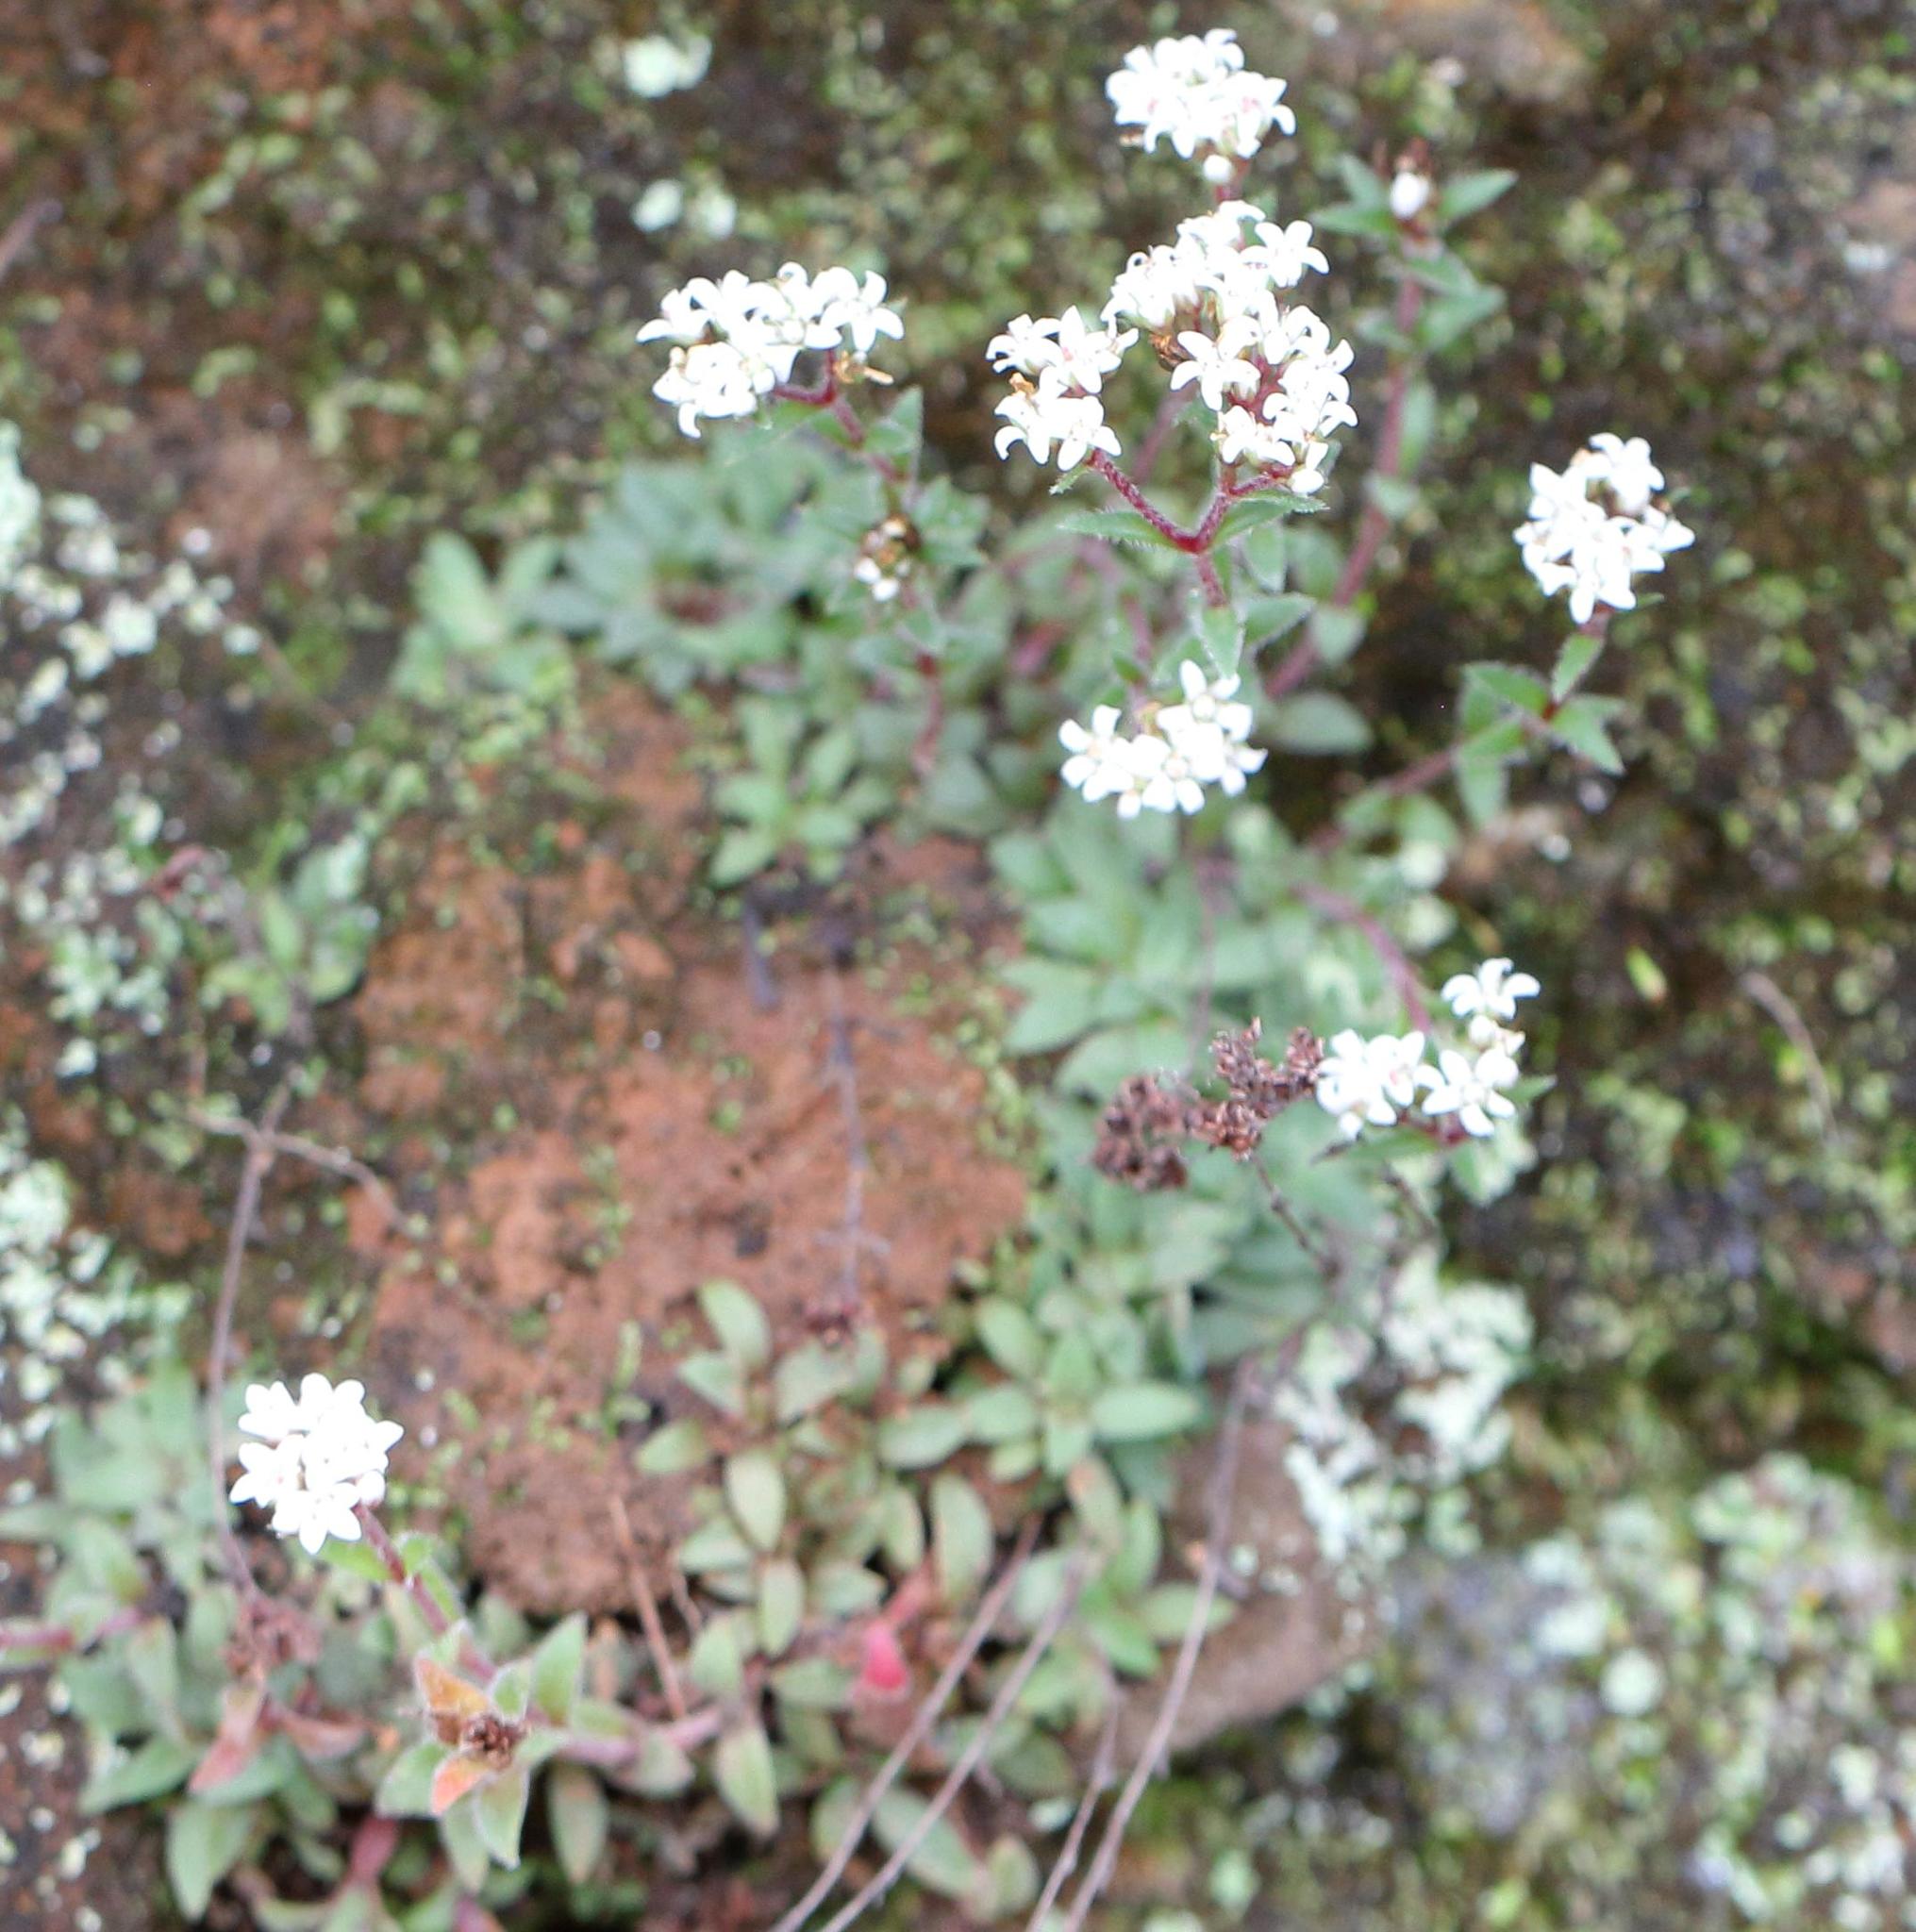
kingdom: Plantae
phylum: Tracheophyta
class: Magnoliopsida
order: Saxifragales
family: Crassulaceae
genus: Crassula
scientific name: Crassula setulosa
